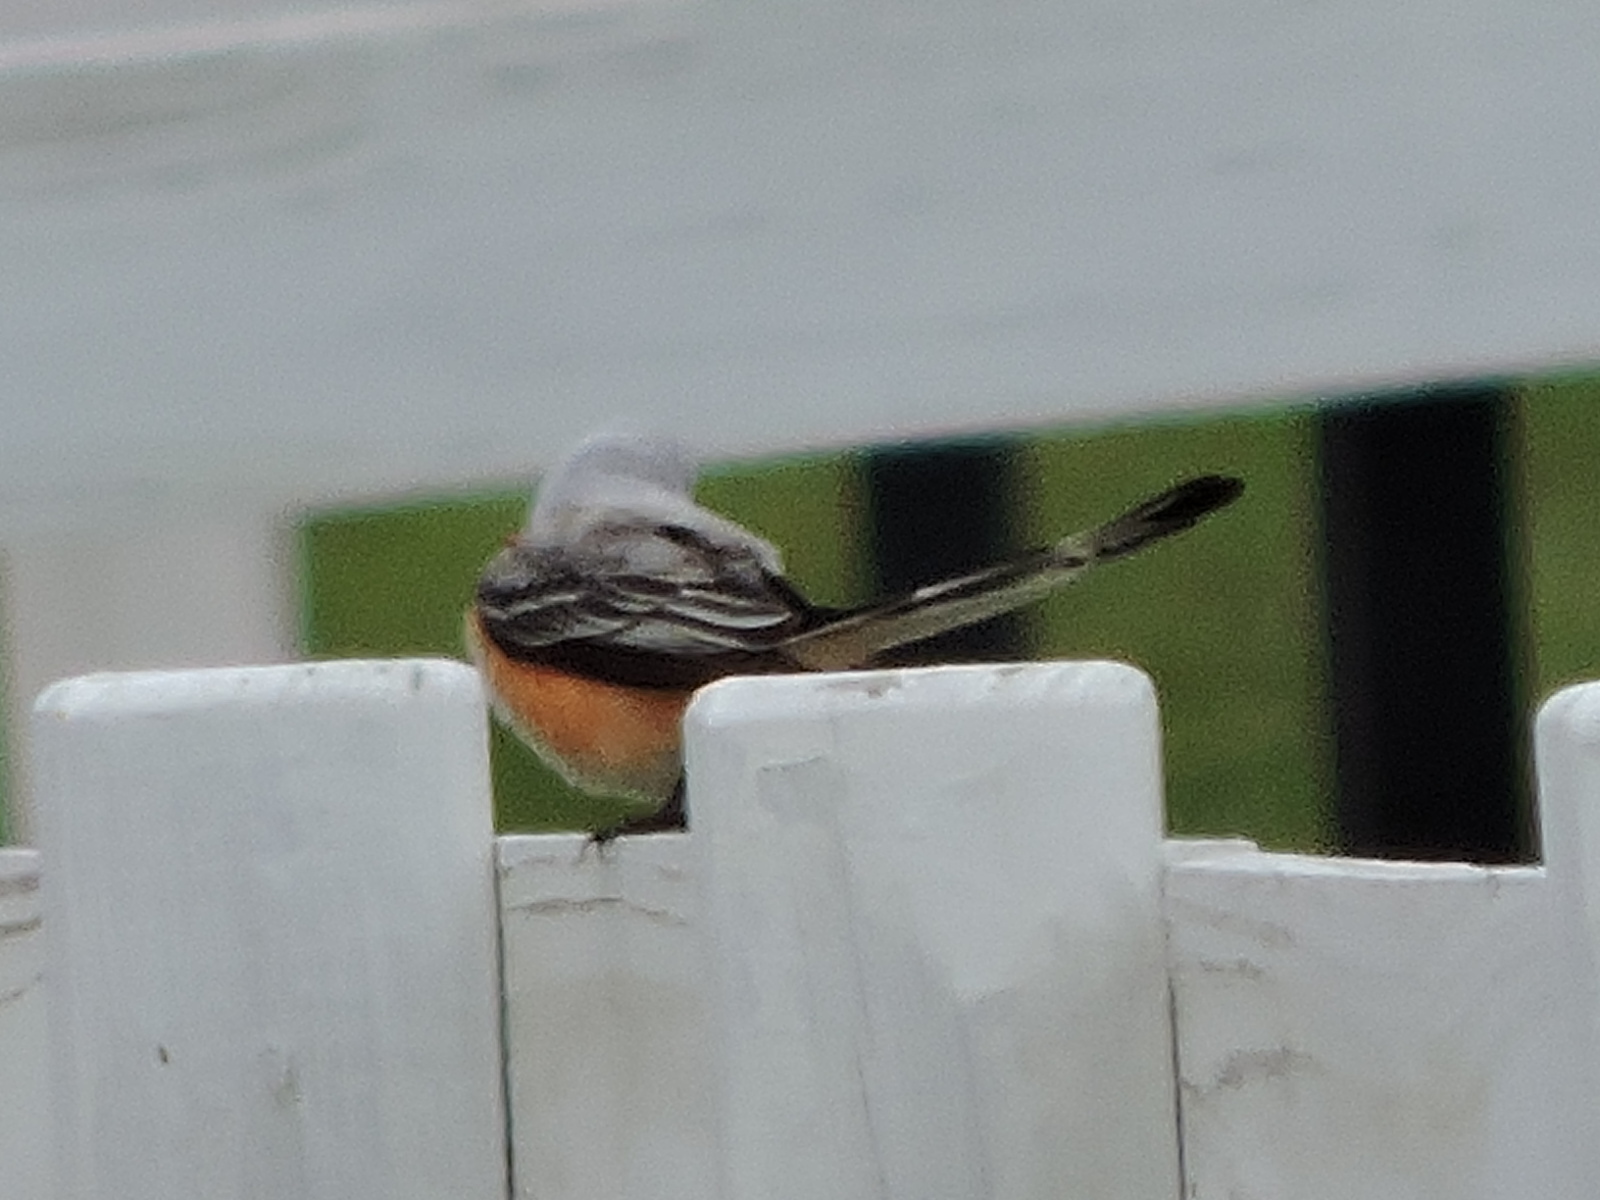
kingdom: Animalia
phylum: Chordata
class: Aves
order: Passeriformes
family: Tyrannidae
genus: Tyrannus
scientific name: Tyrannus forficatus
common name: Scissor-tailed flycatcher
